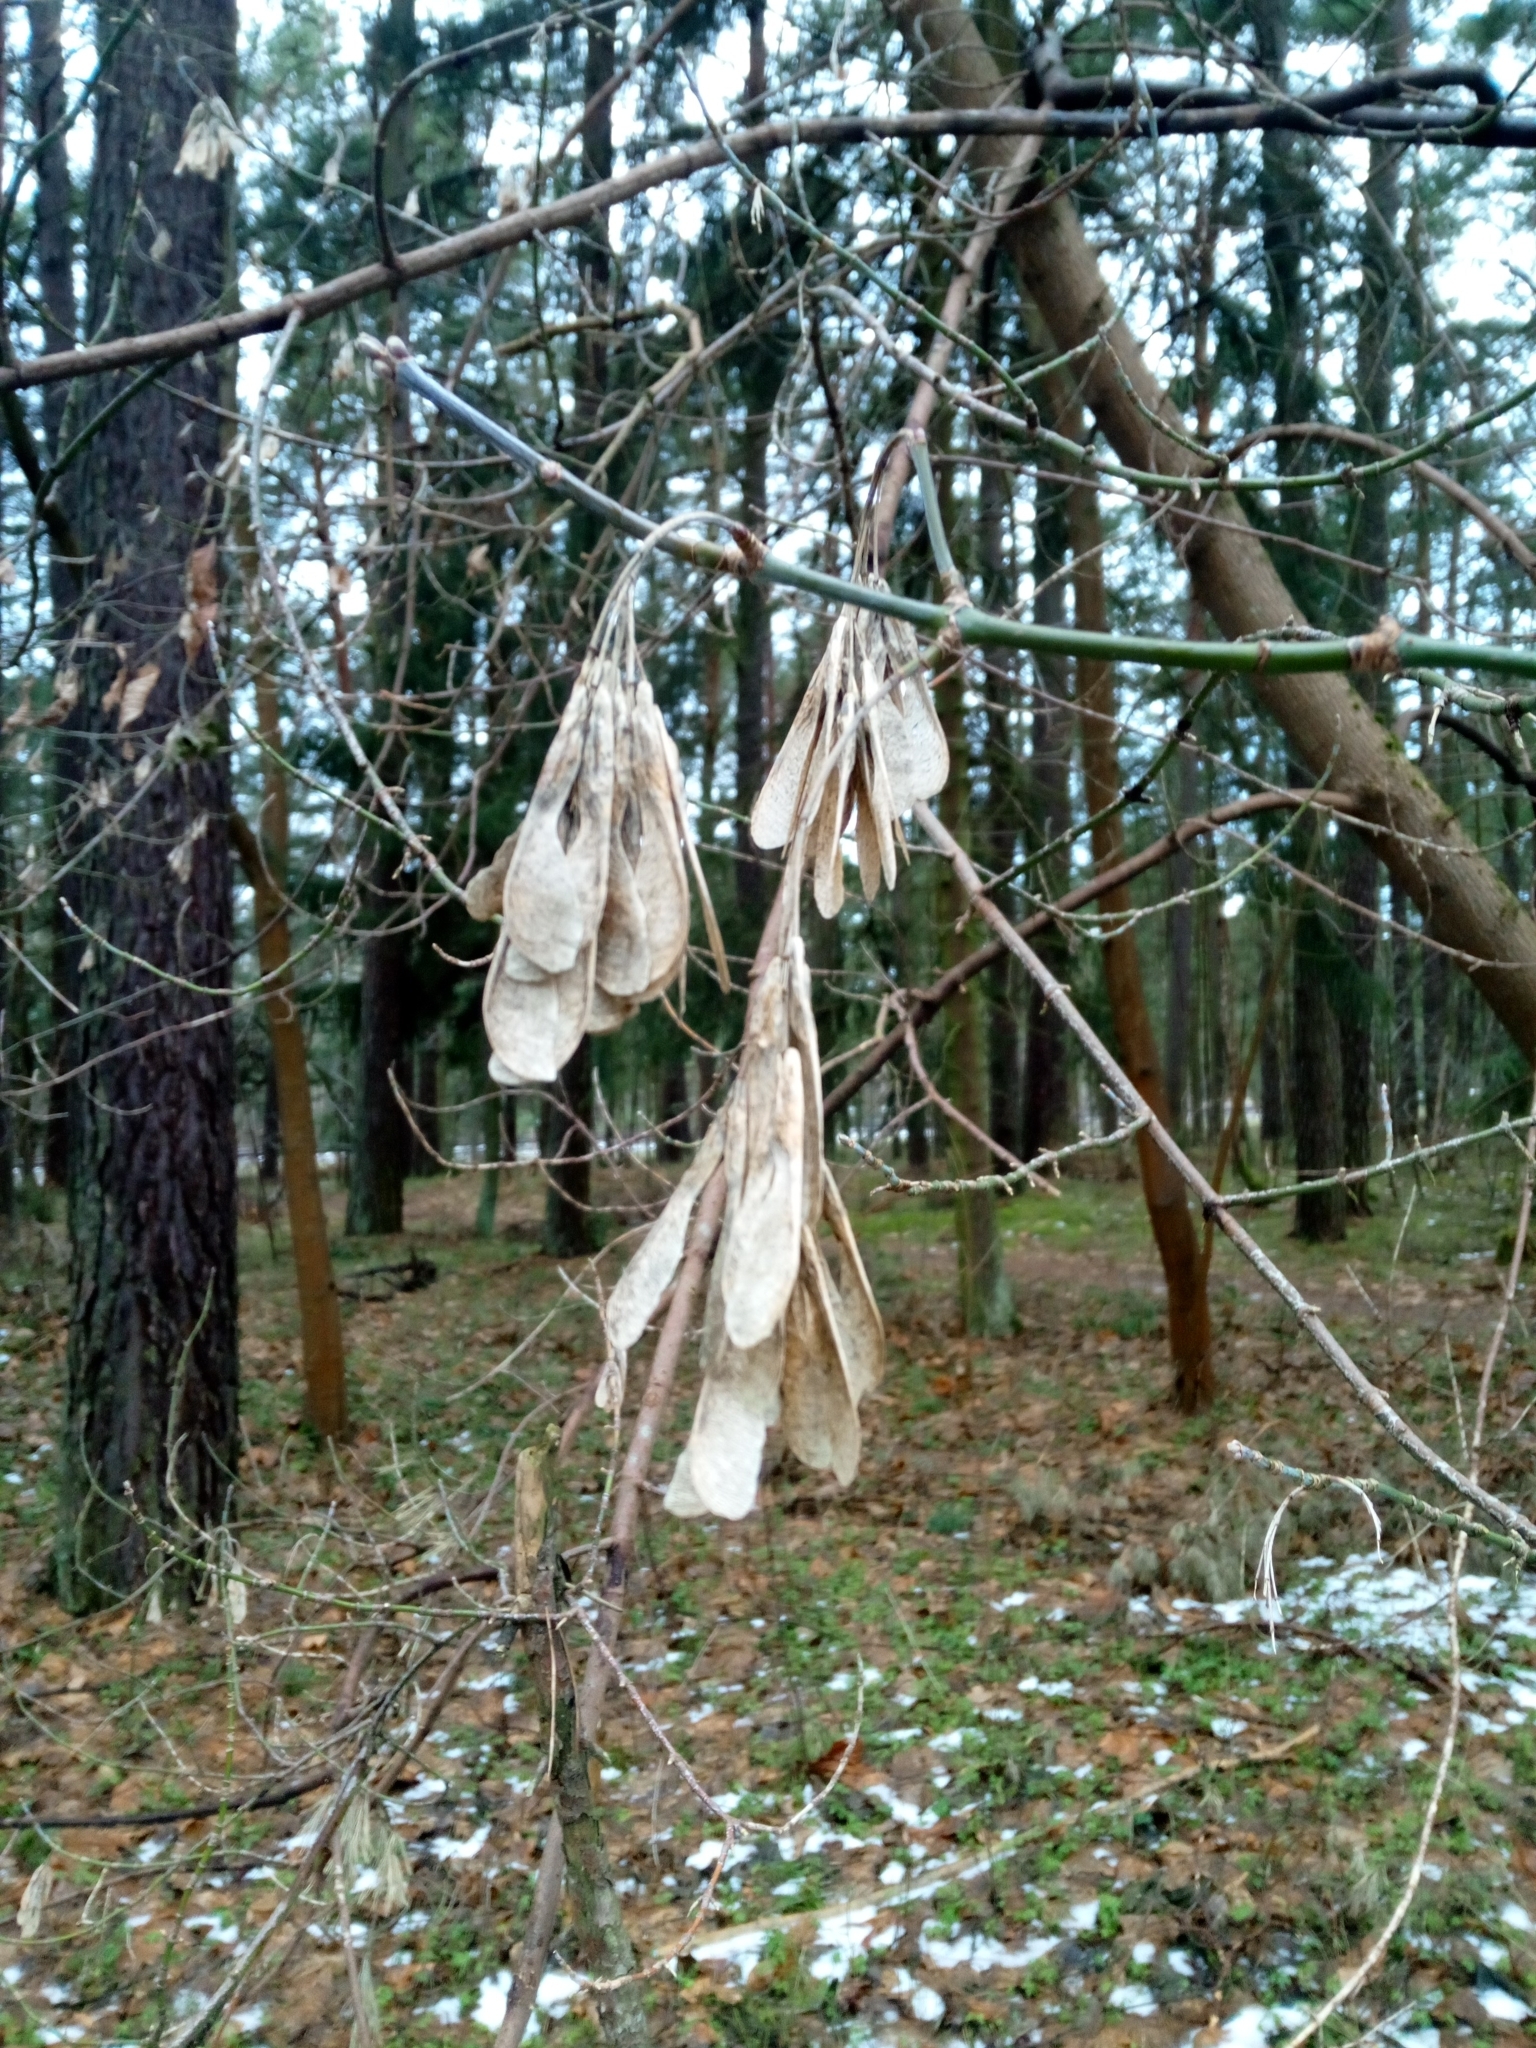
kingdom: Plantae
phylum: Tracheophyta
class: Magnoliopsida
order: Sapindales
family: Sapindaceae
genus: Acer
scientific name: Acer negundo
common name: Ashleaf maple
